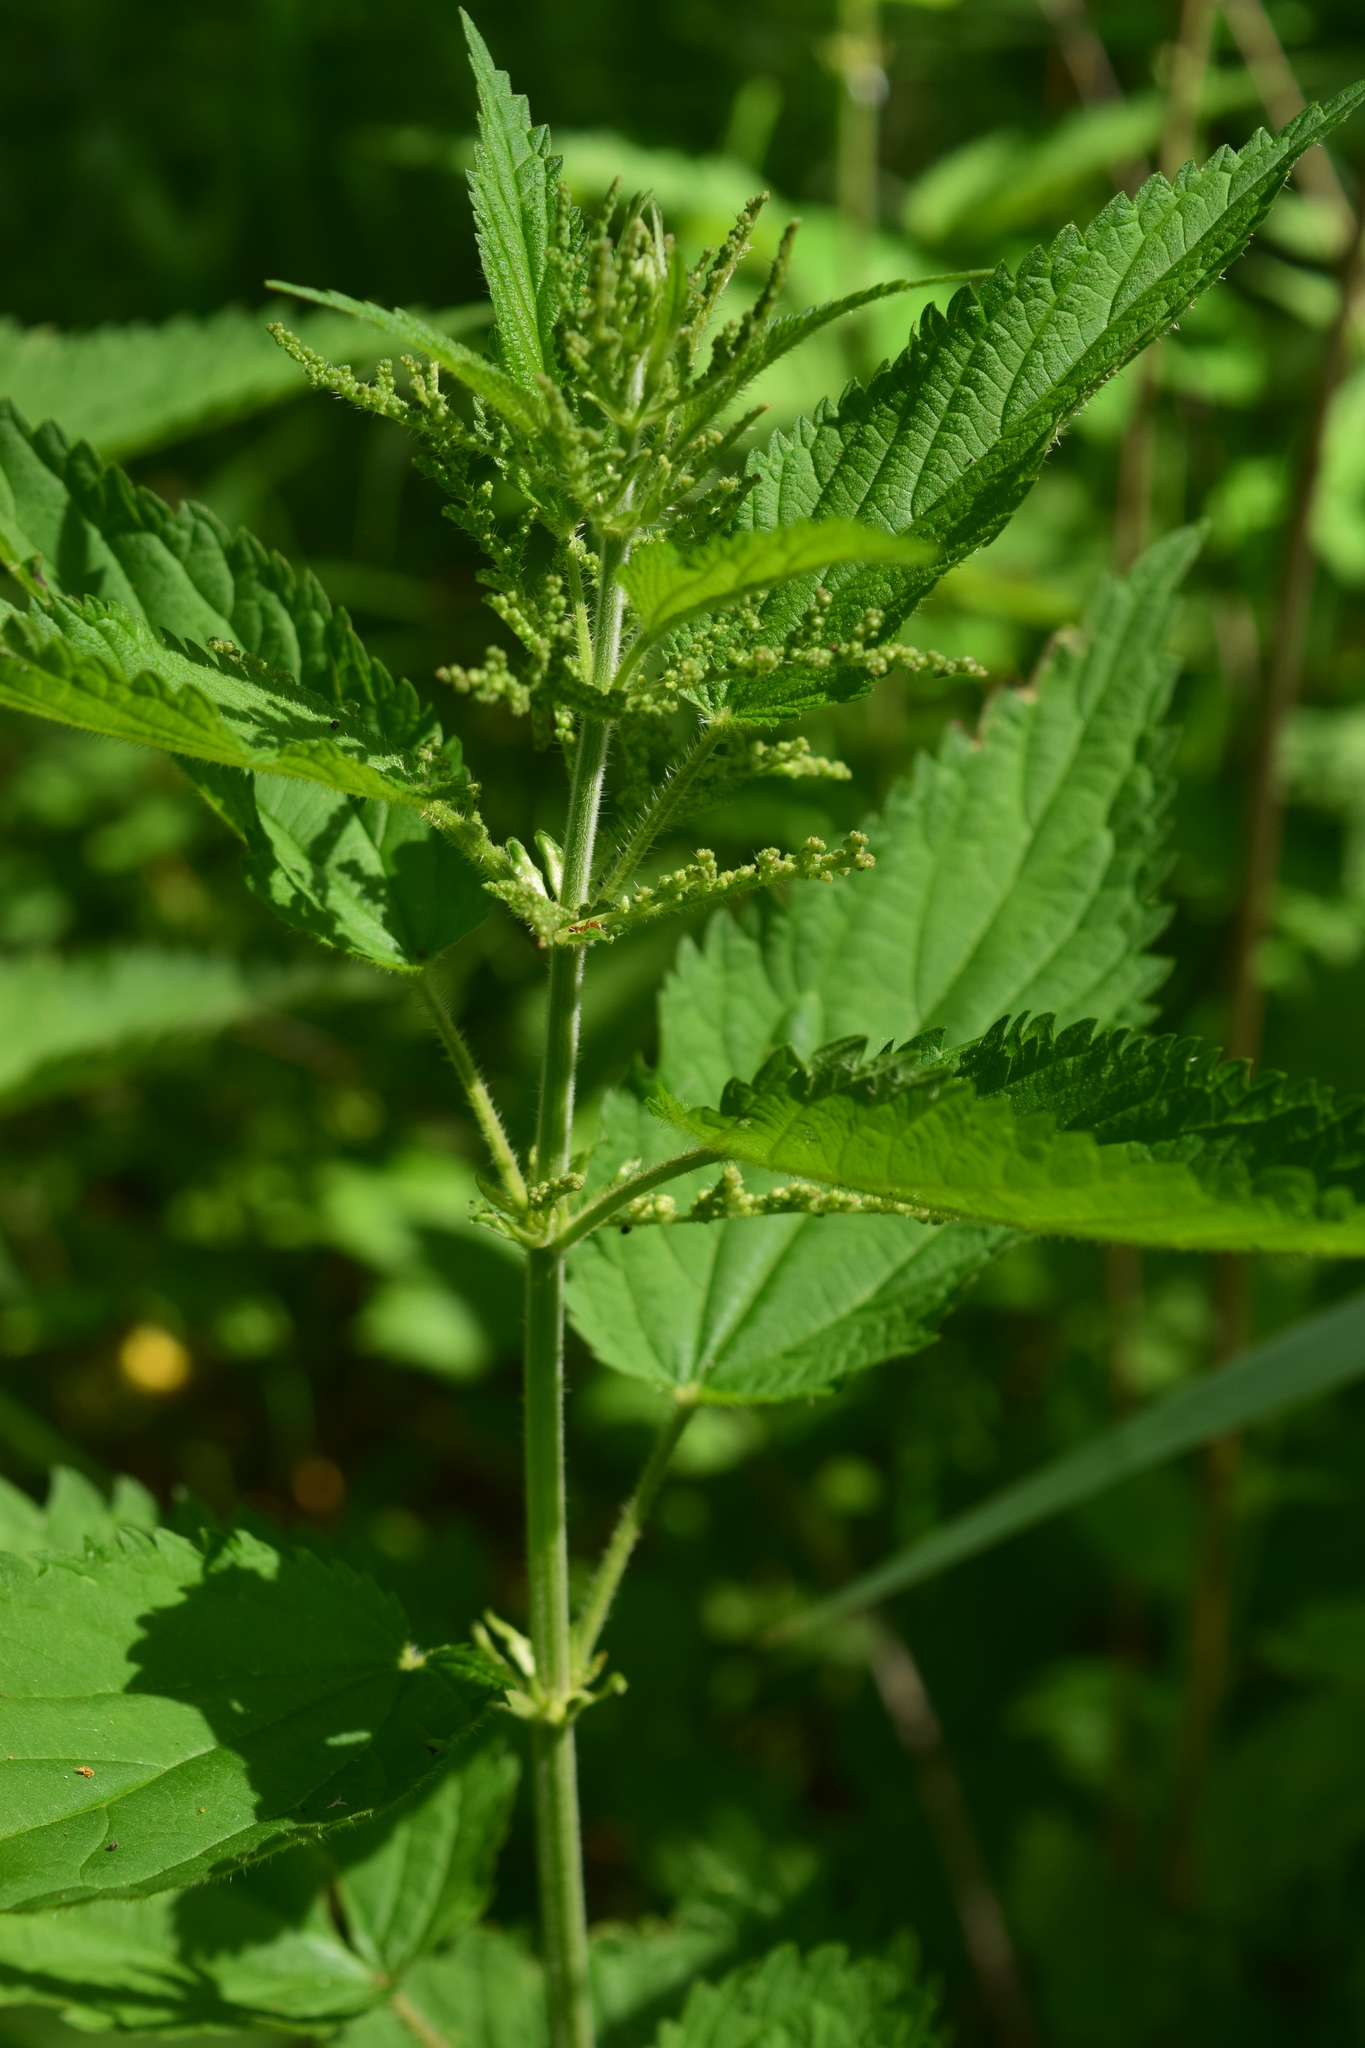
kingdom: Plantae
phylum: Tracheophyta
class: Magnoliopsida
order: Rosales
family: Urticaceae
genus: Urtica
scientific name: Urtica dioica
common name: Common nettle
